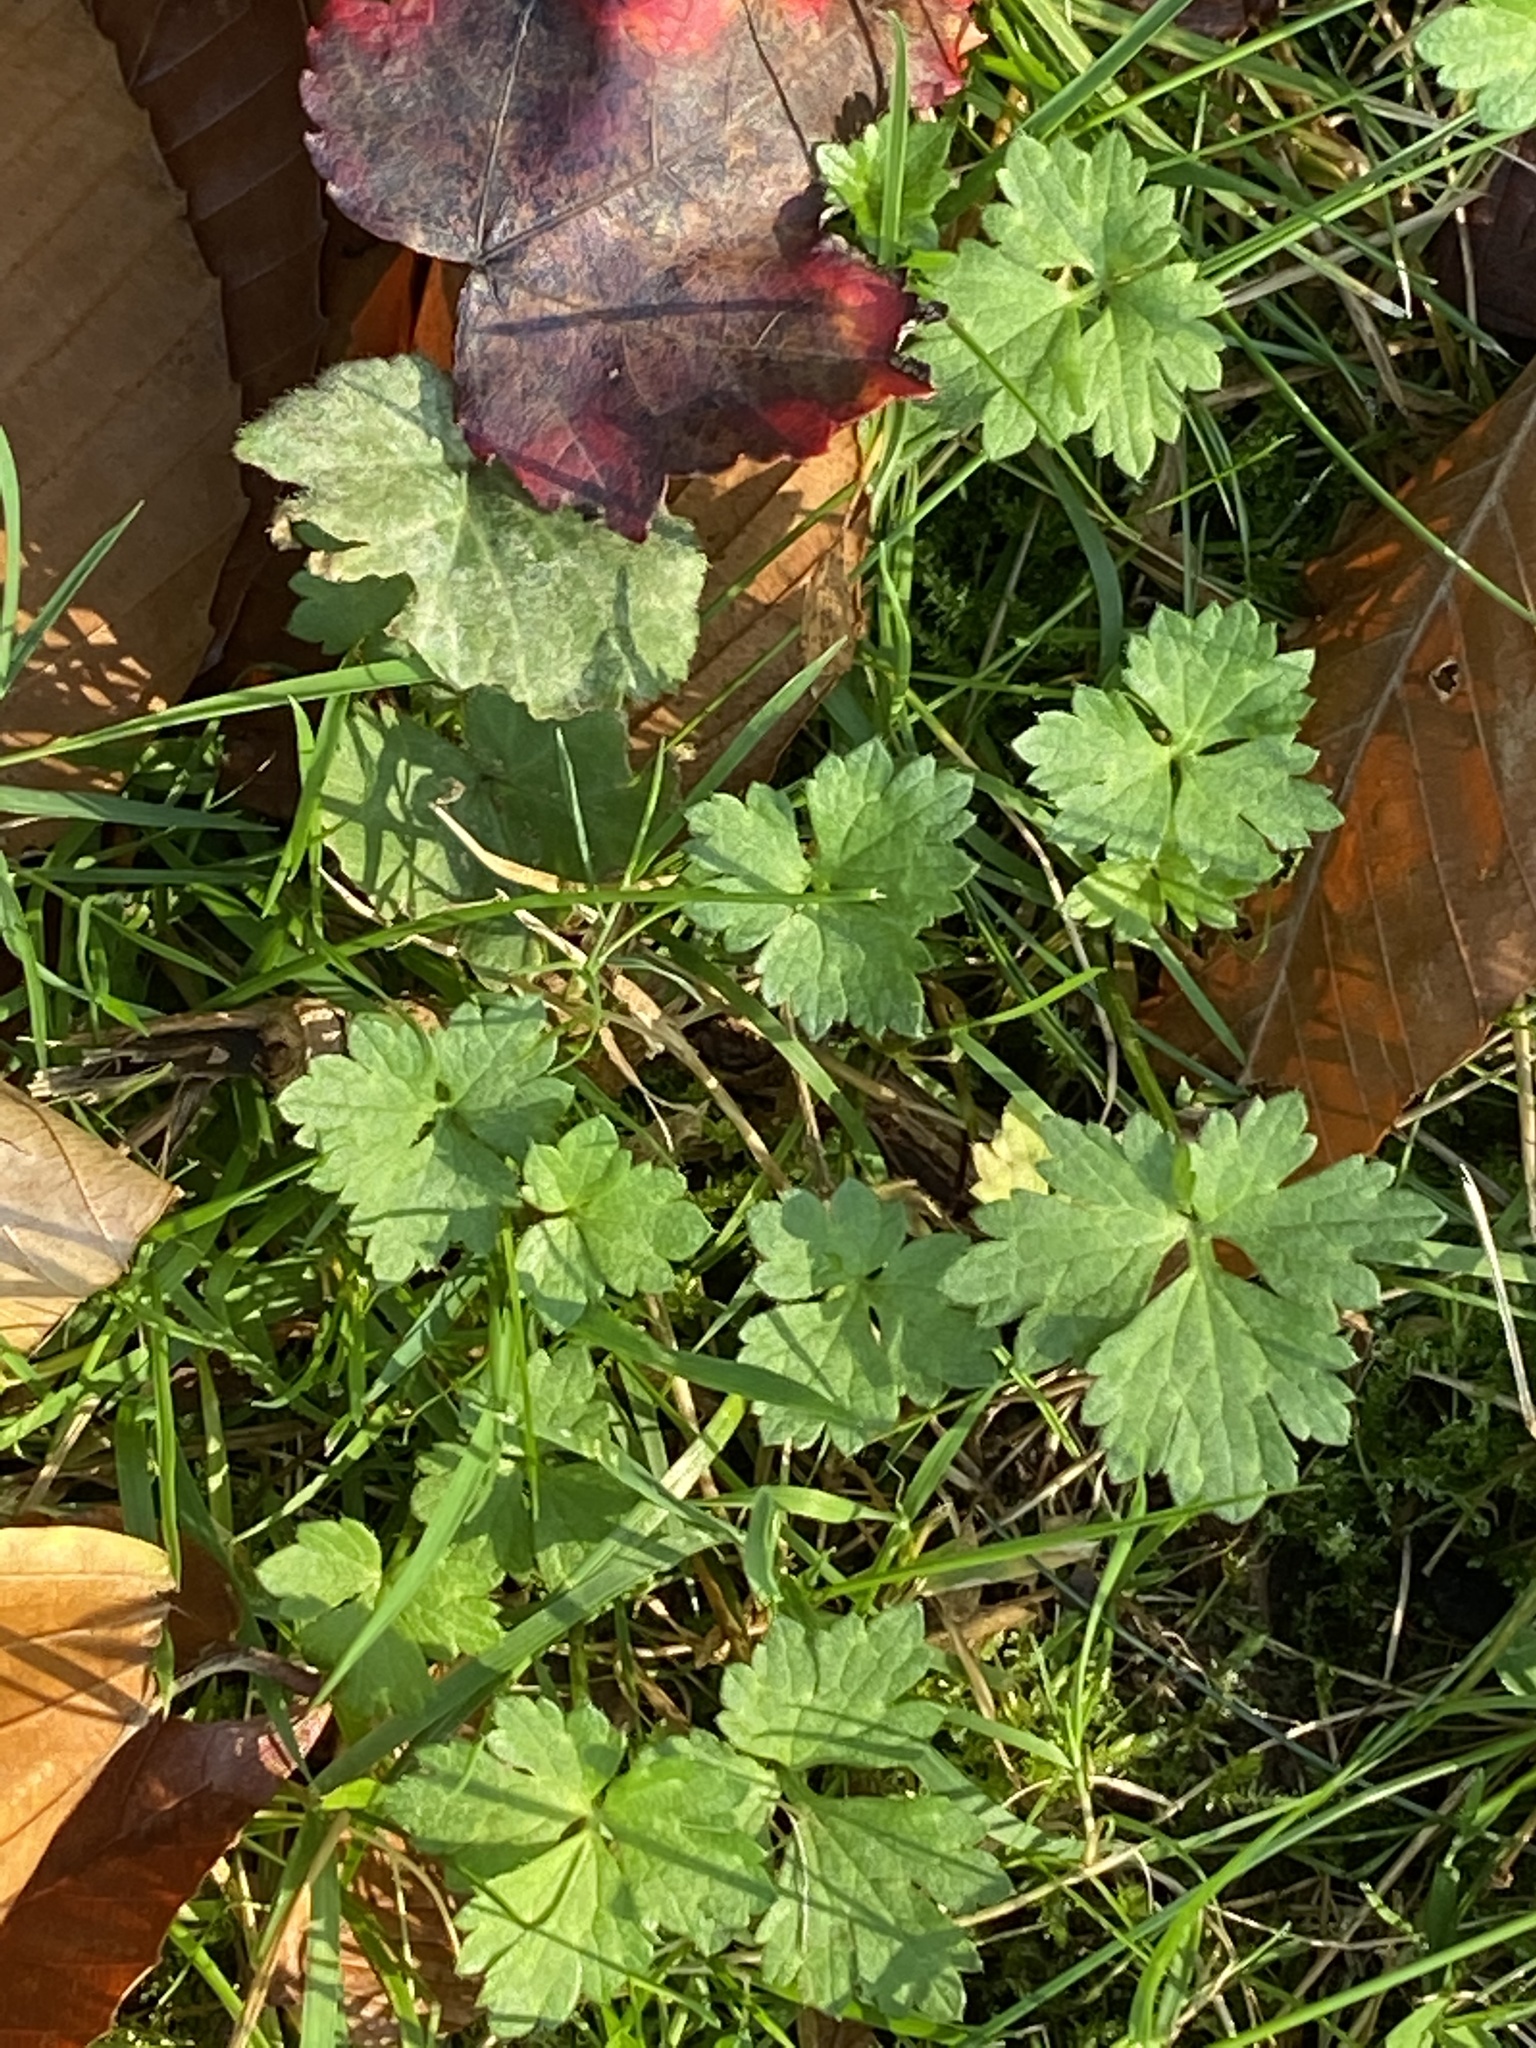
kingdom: Plantae
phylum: Tracheophyta
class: Magnoliopsida
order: Ranunculales
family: Ranunculaceae
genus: Ranunculus
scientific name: Ranunculus repens
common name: Creeping buttercup
